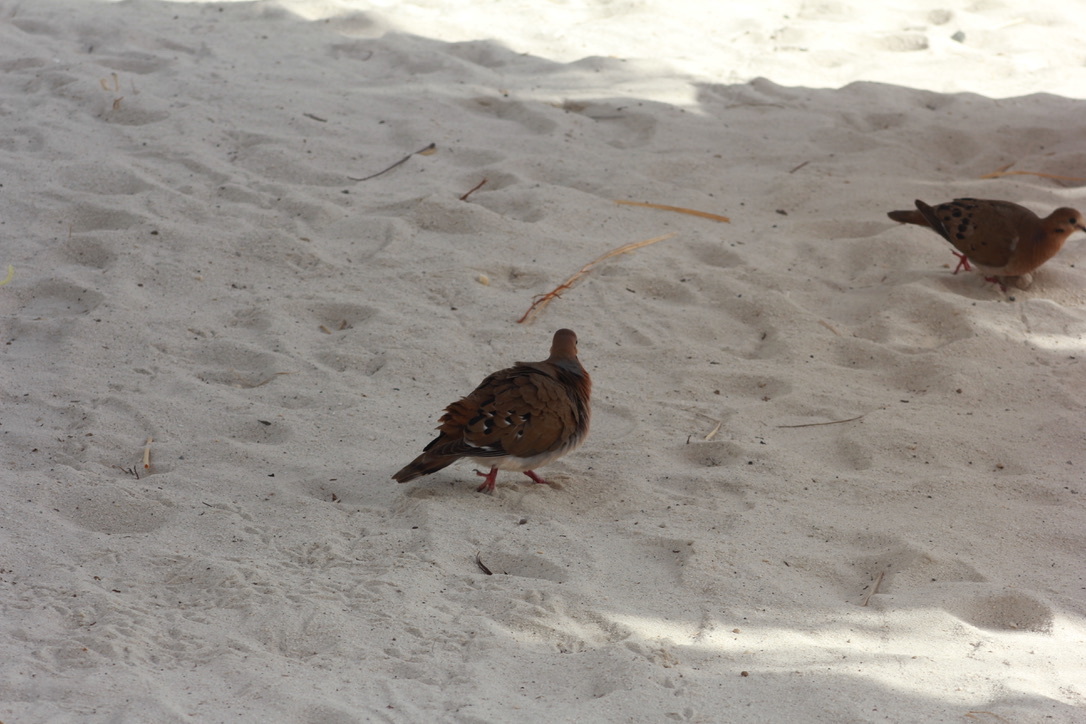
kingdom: Animalia
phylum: Chordata
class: Aves
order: Columbiformes
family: Columbidae
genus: Zenaida
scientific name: Zenaida aurita
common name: Zenaida dove
